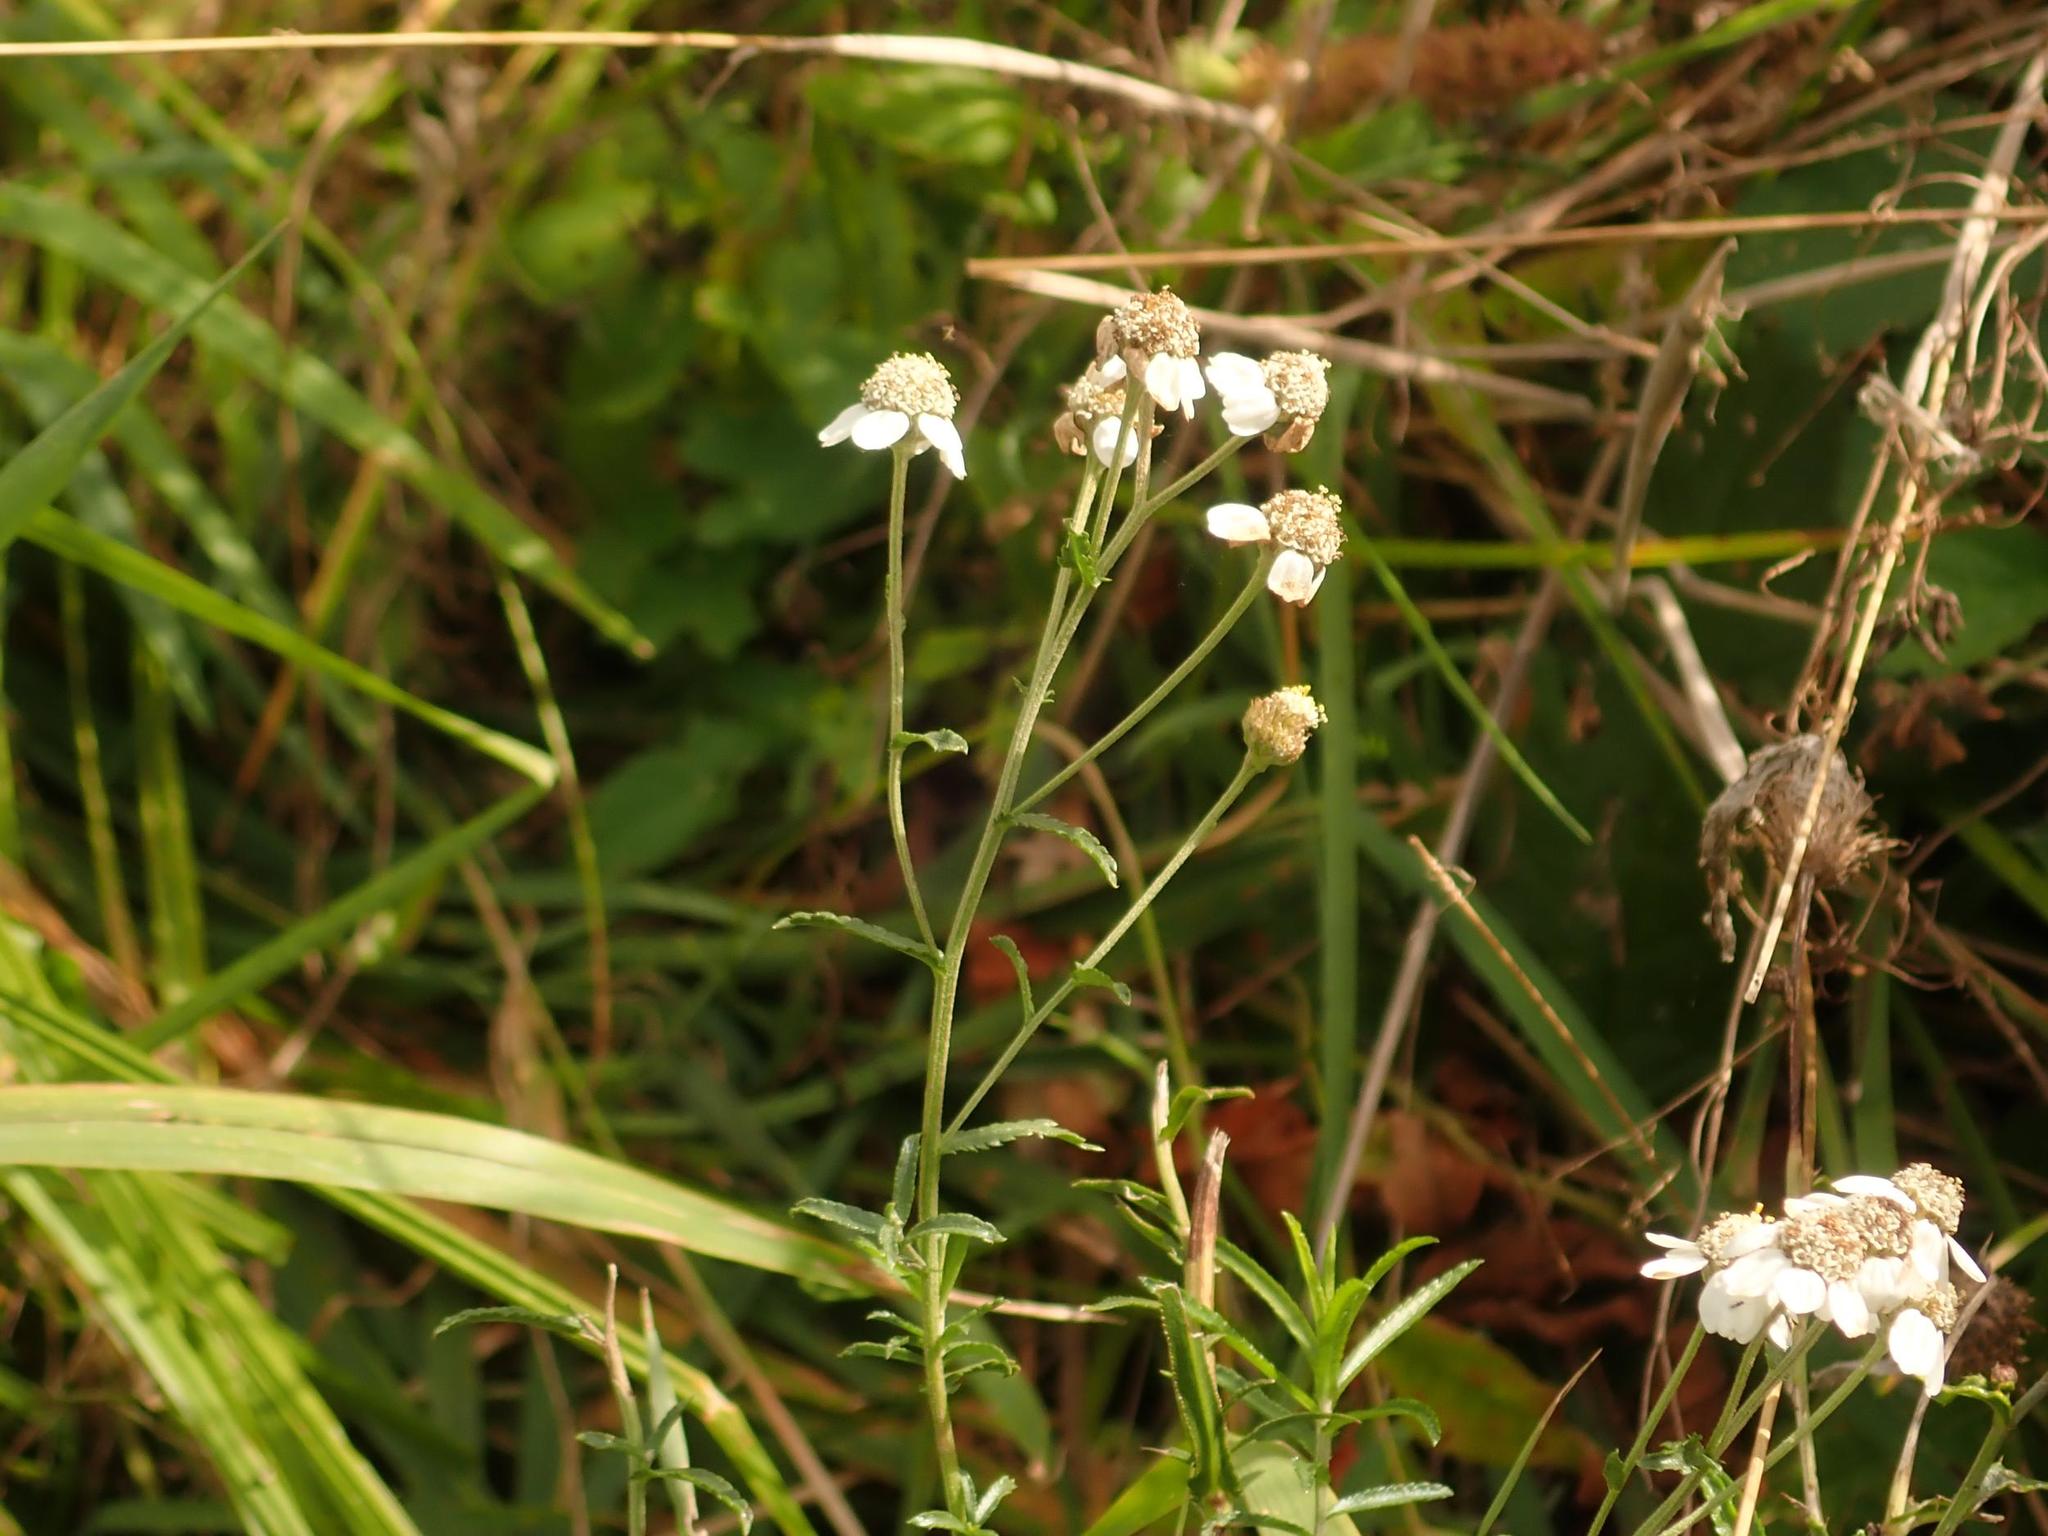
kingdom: Plantae
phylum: Tracheophyta
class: Magnoliopsida
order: Asterales
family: Asteraceae
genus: Achillea
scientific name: Achillea ptarmica
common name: Sneezeweed
